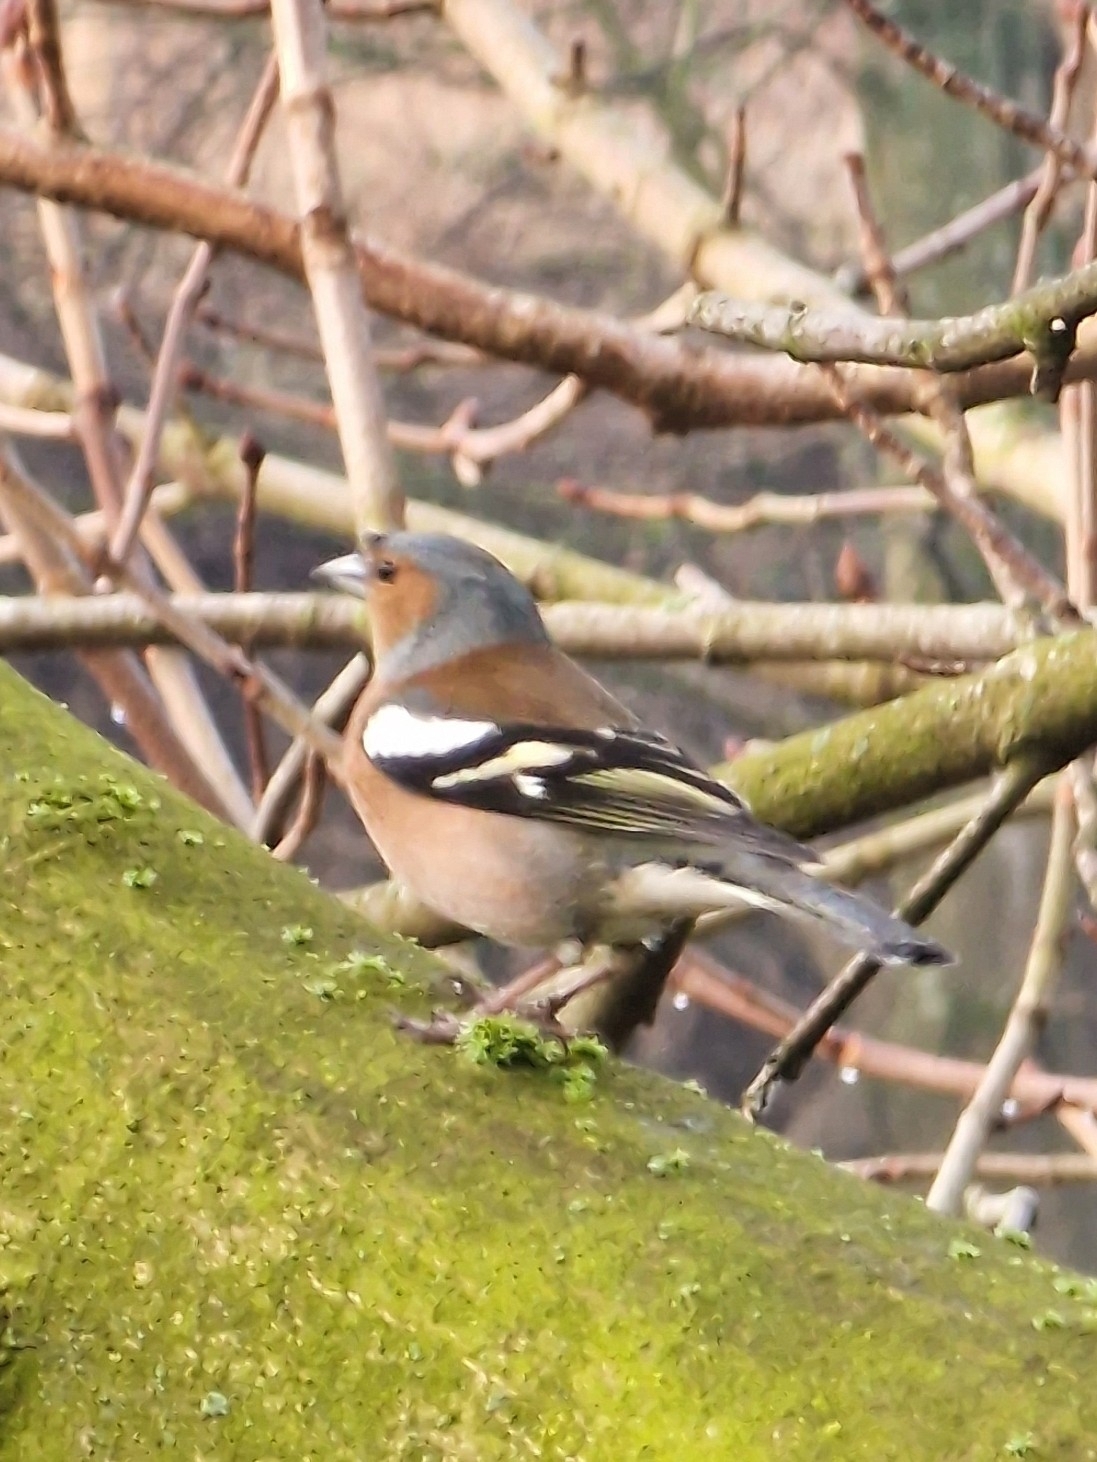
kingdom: Animalia
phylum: Chordata
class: Aves
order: Passeriformes
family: Fringillidae
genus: Fringilla
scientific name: Fringilla coelebs
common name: Common chaffinch
